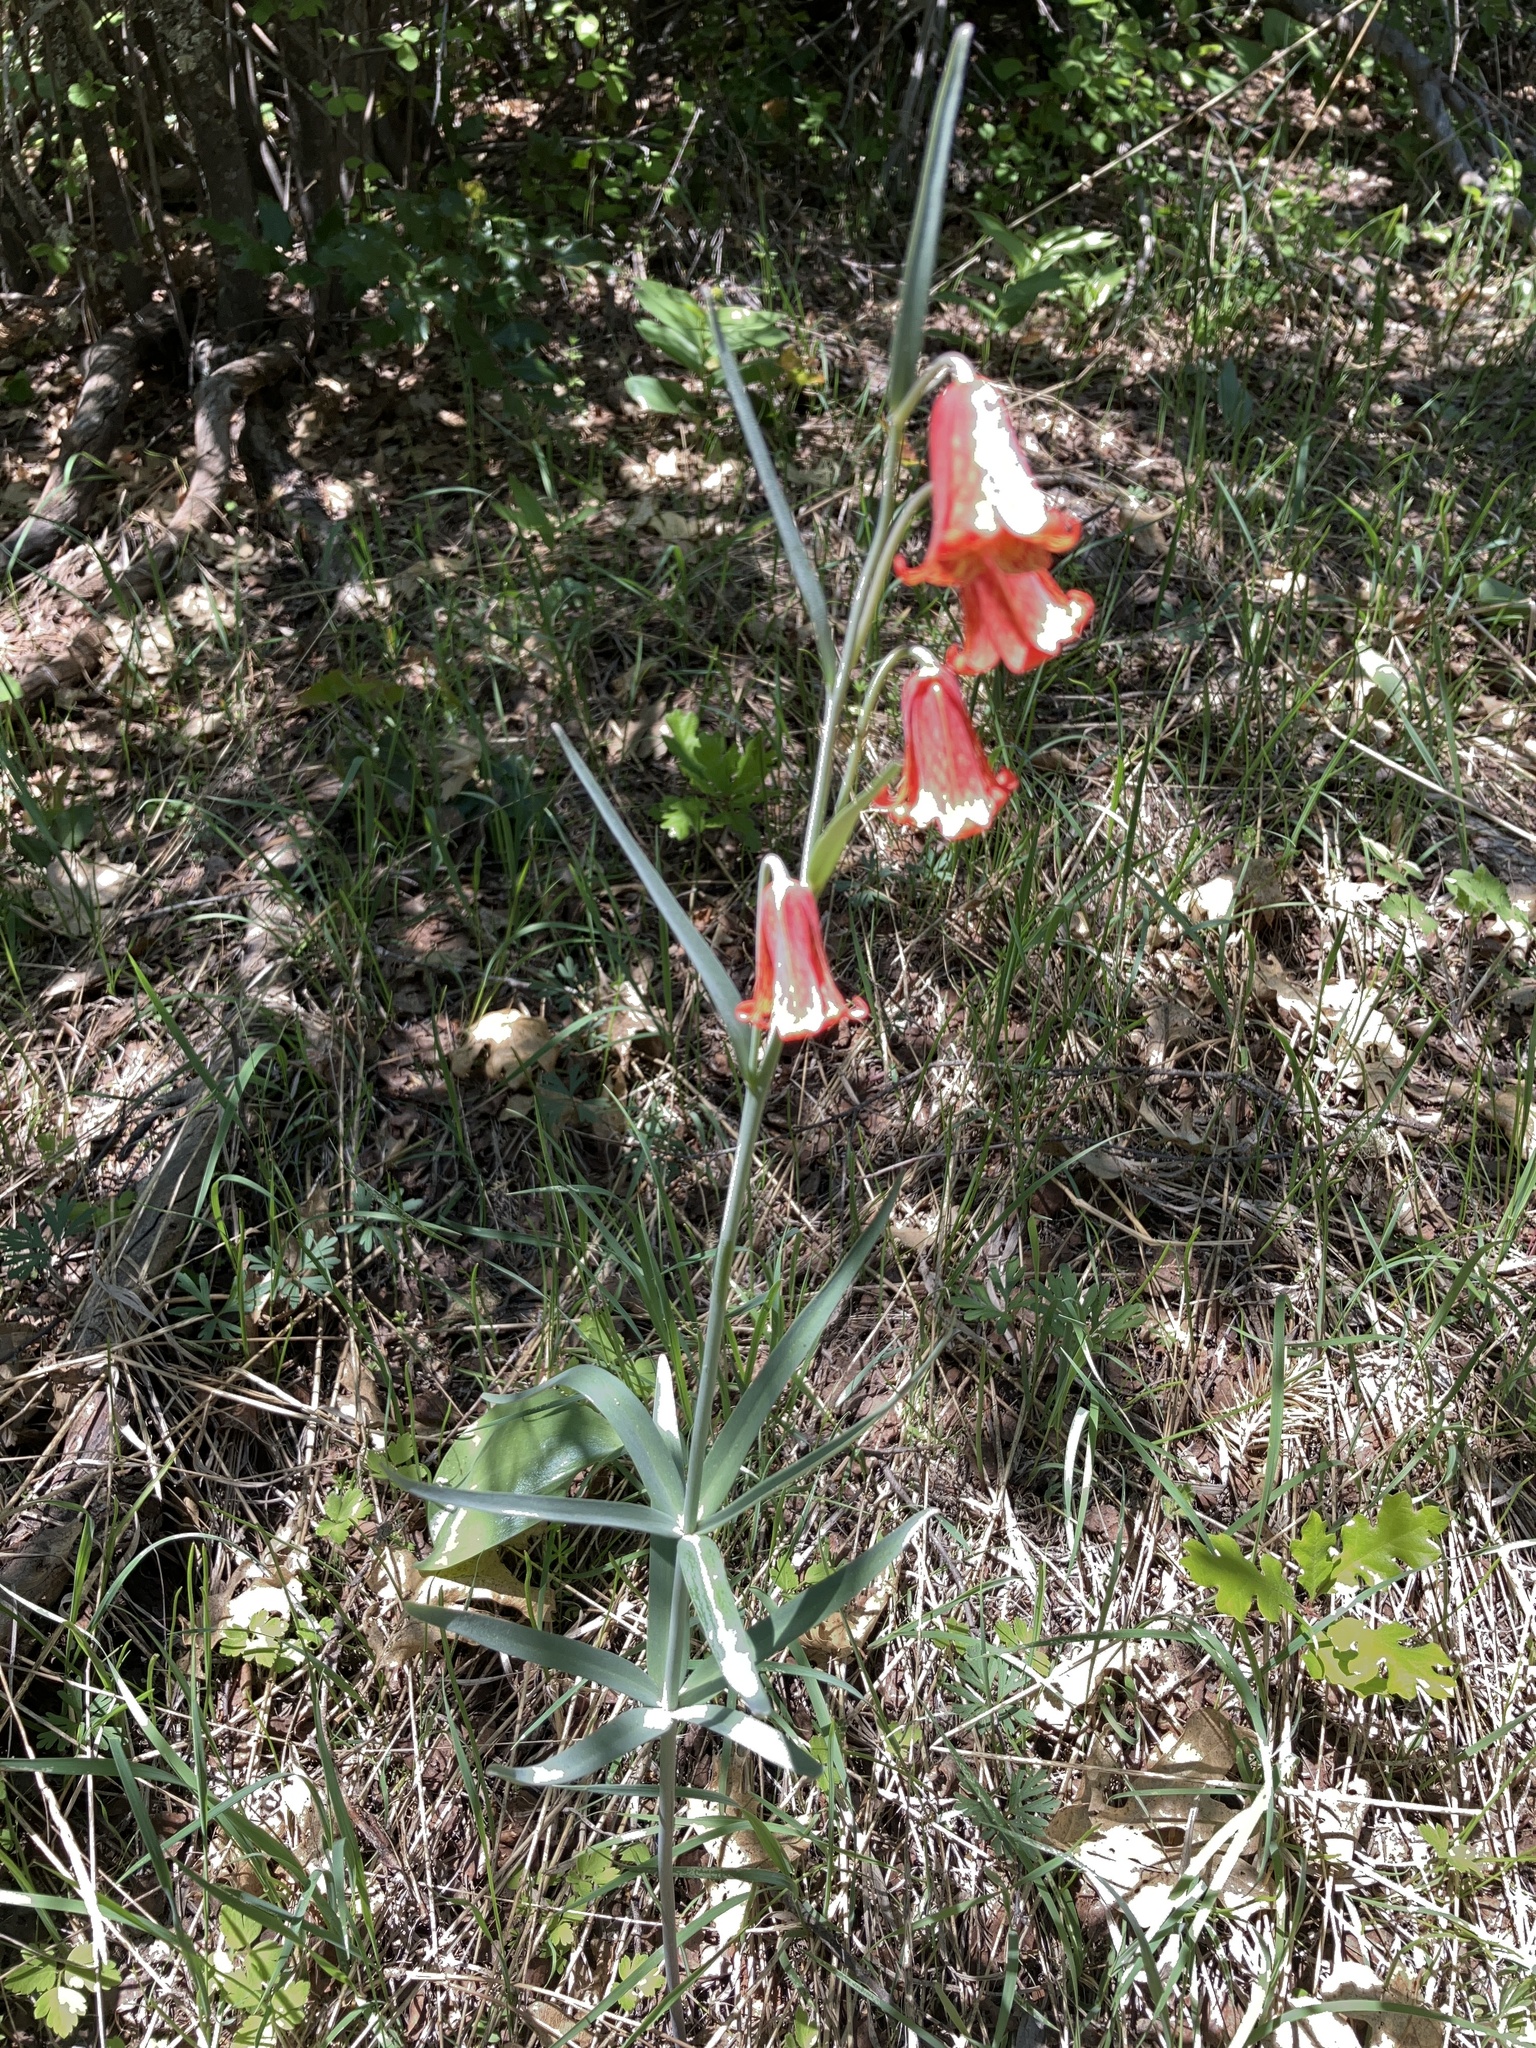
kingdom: Plantae
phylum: Tracheophyta
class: Liliopsida
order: Liliales
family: Liliaceae
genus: Fritillaria
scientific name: Fritillaria gentneri
